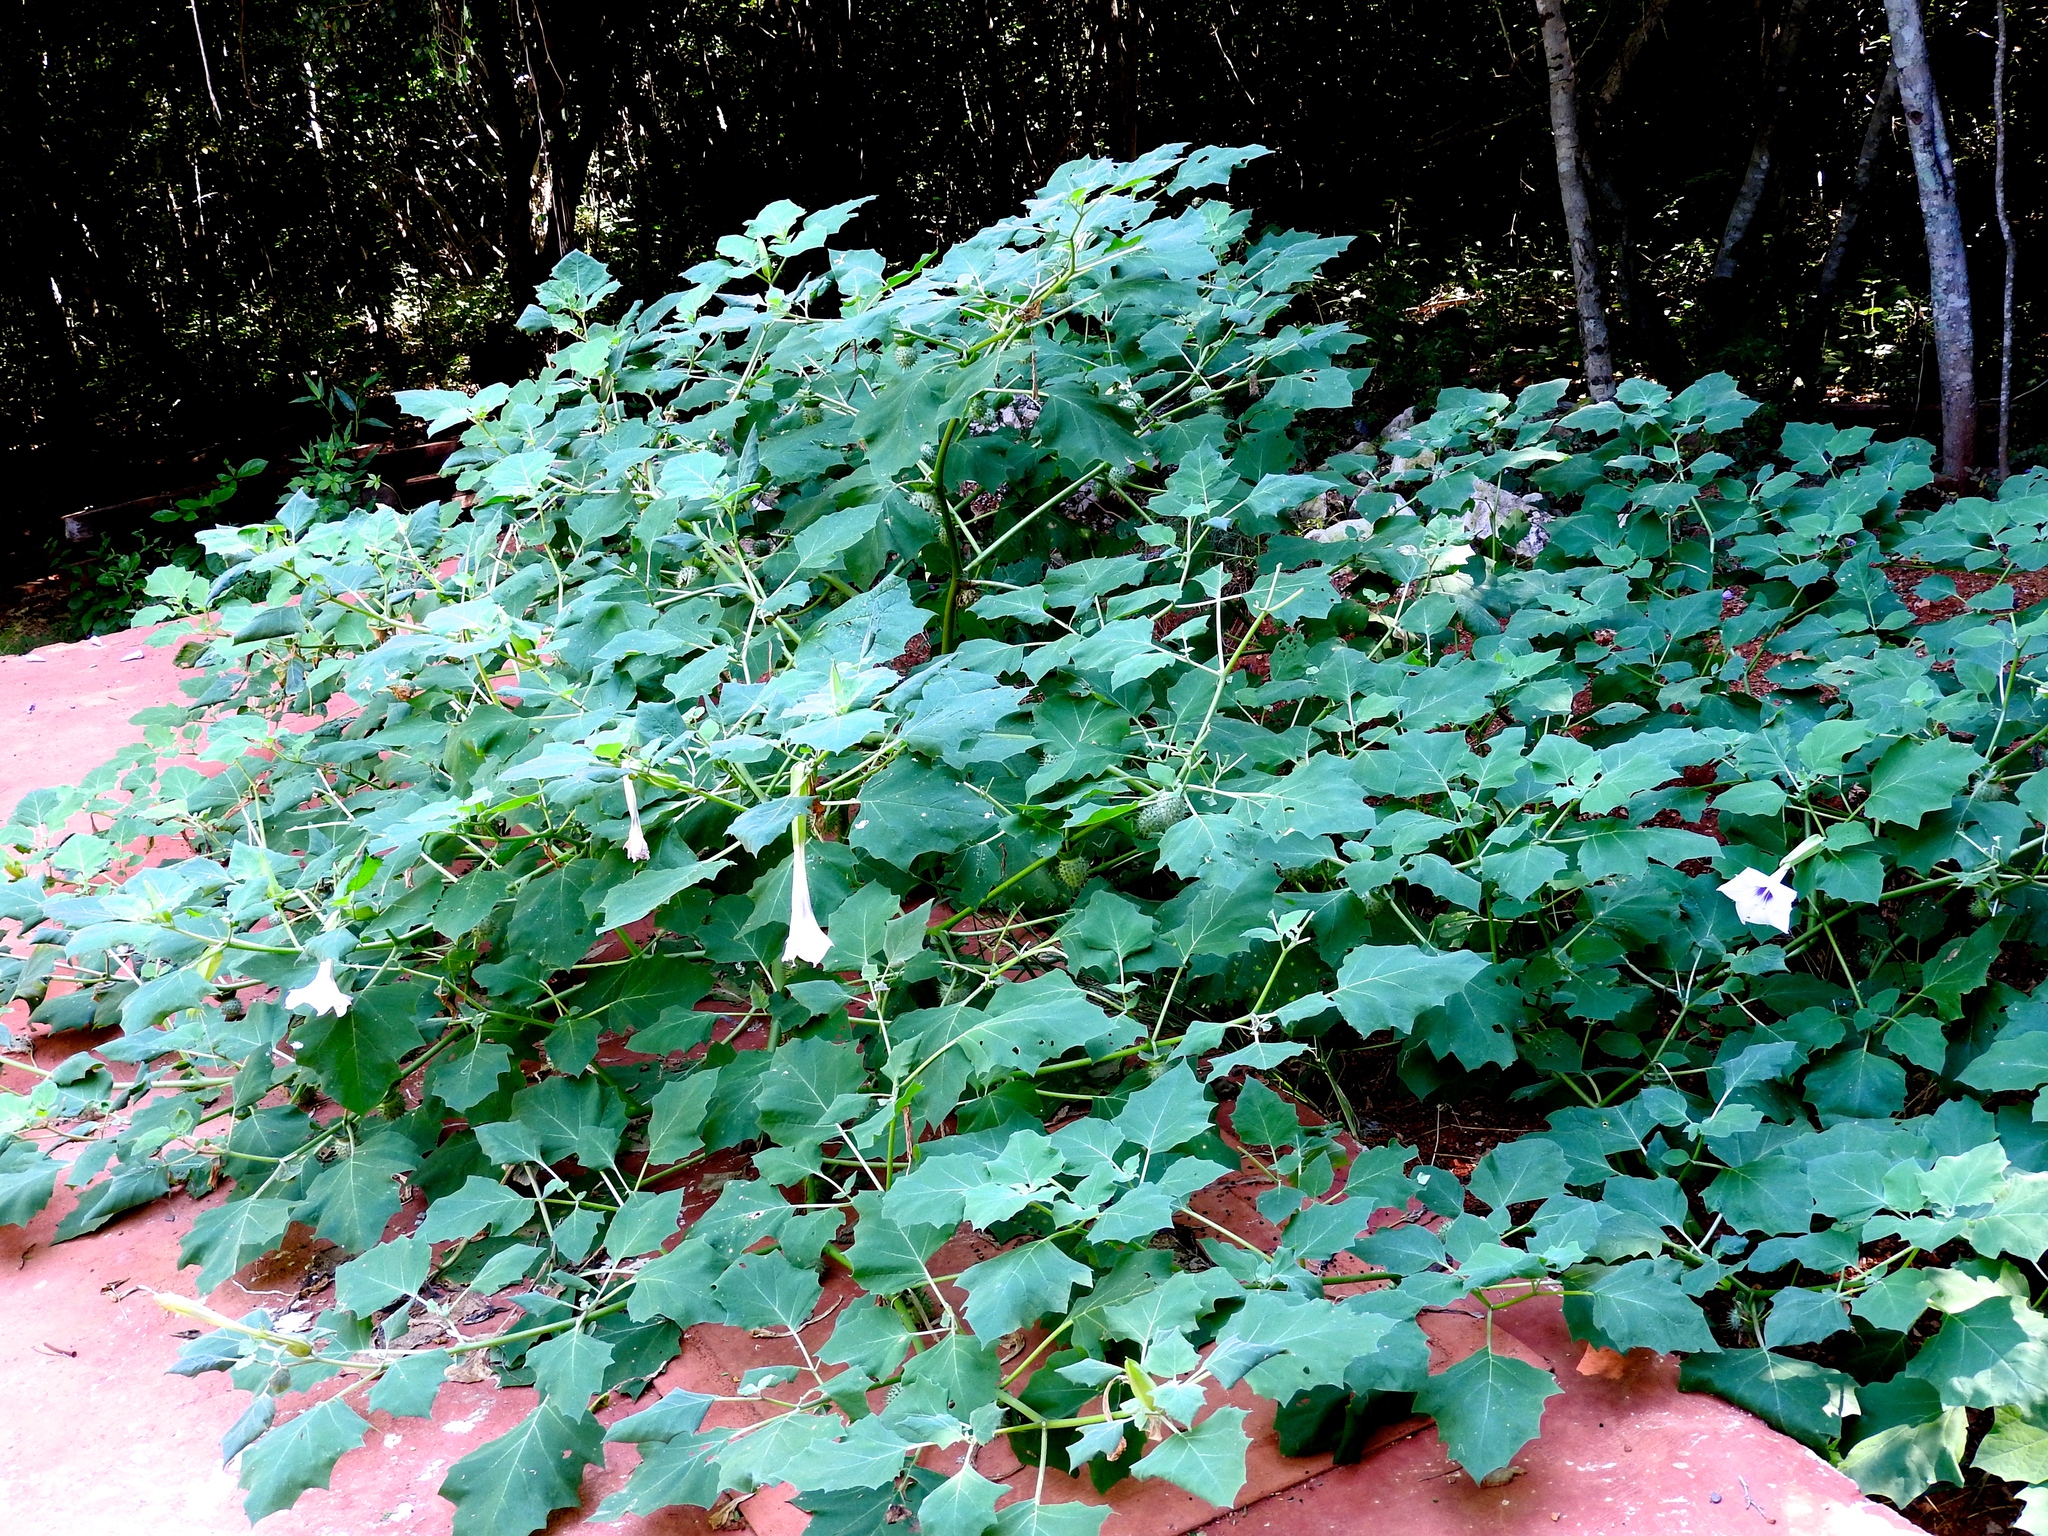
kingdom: Plantae
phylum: Tracheophyta
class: Magnoliopsida
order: Solanales
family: Solanaceae
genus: Datura
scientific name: Datura innoxia
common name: Downy thorn-apple
